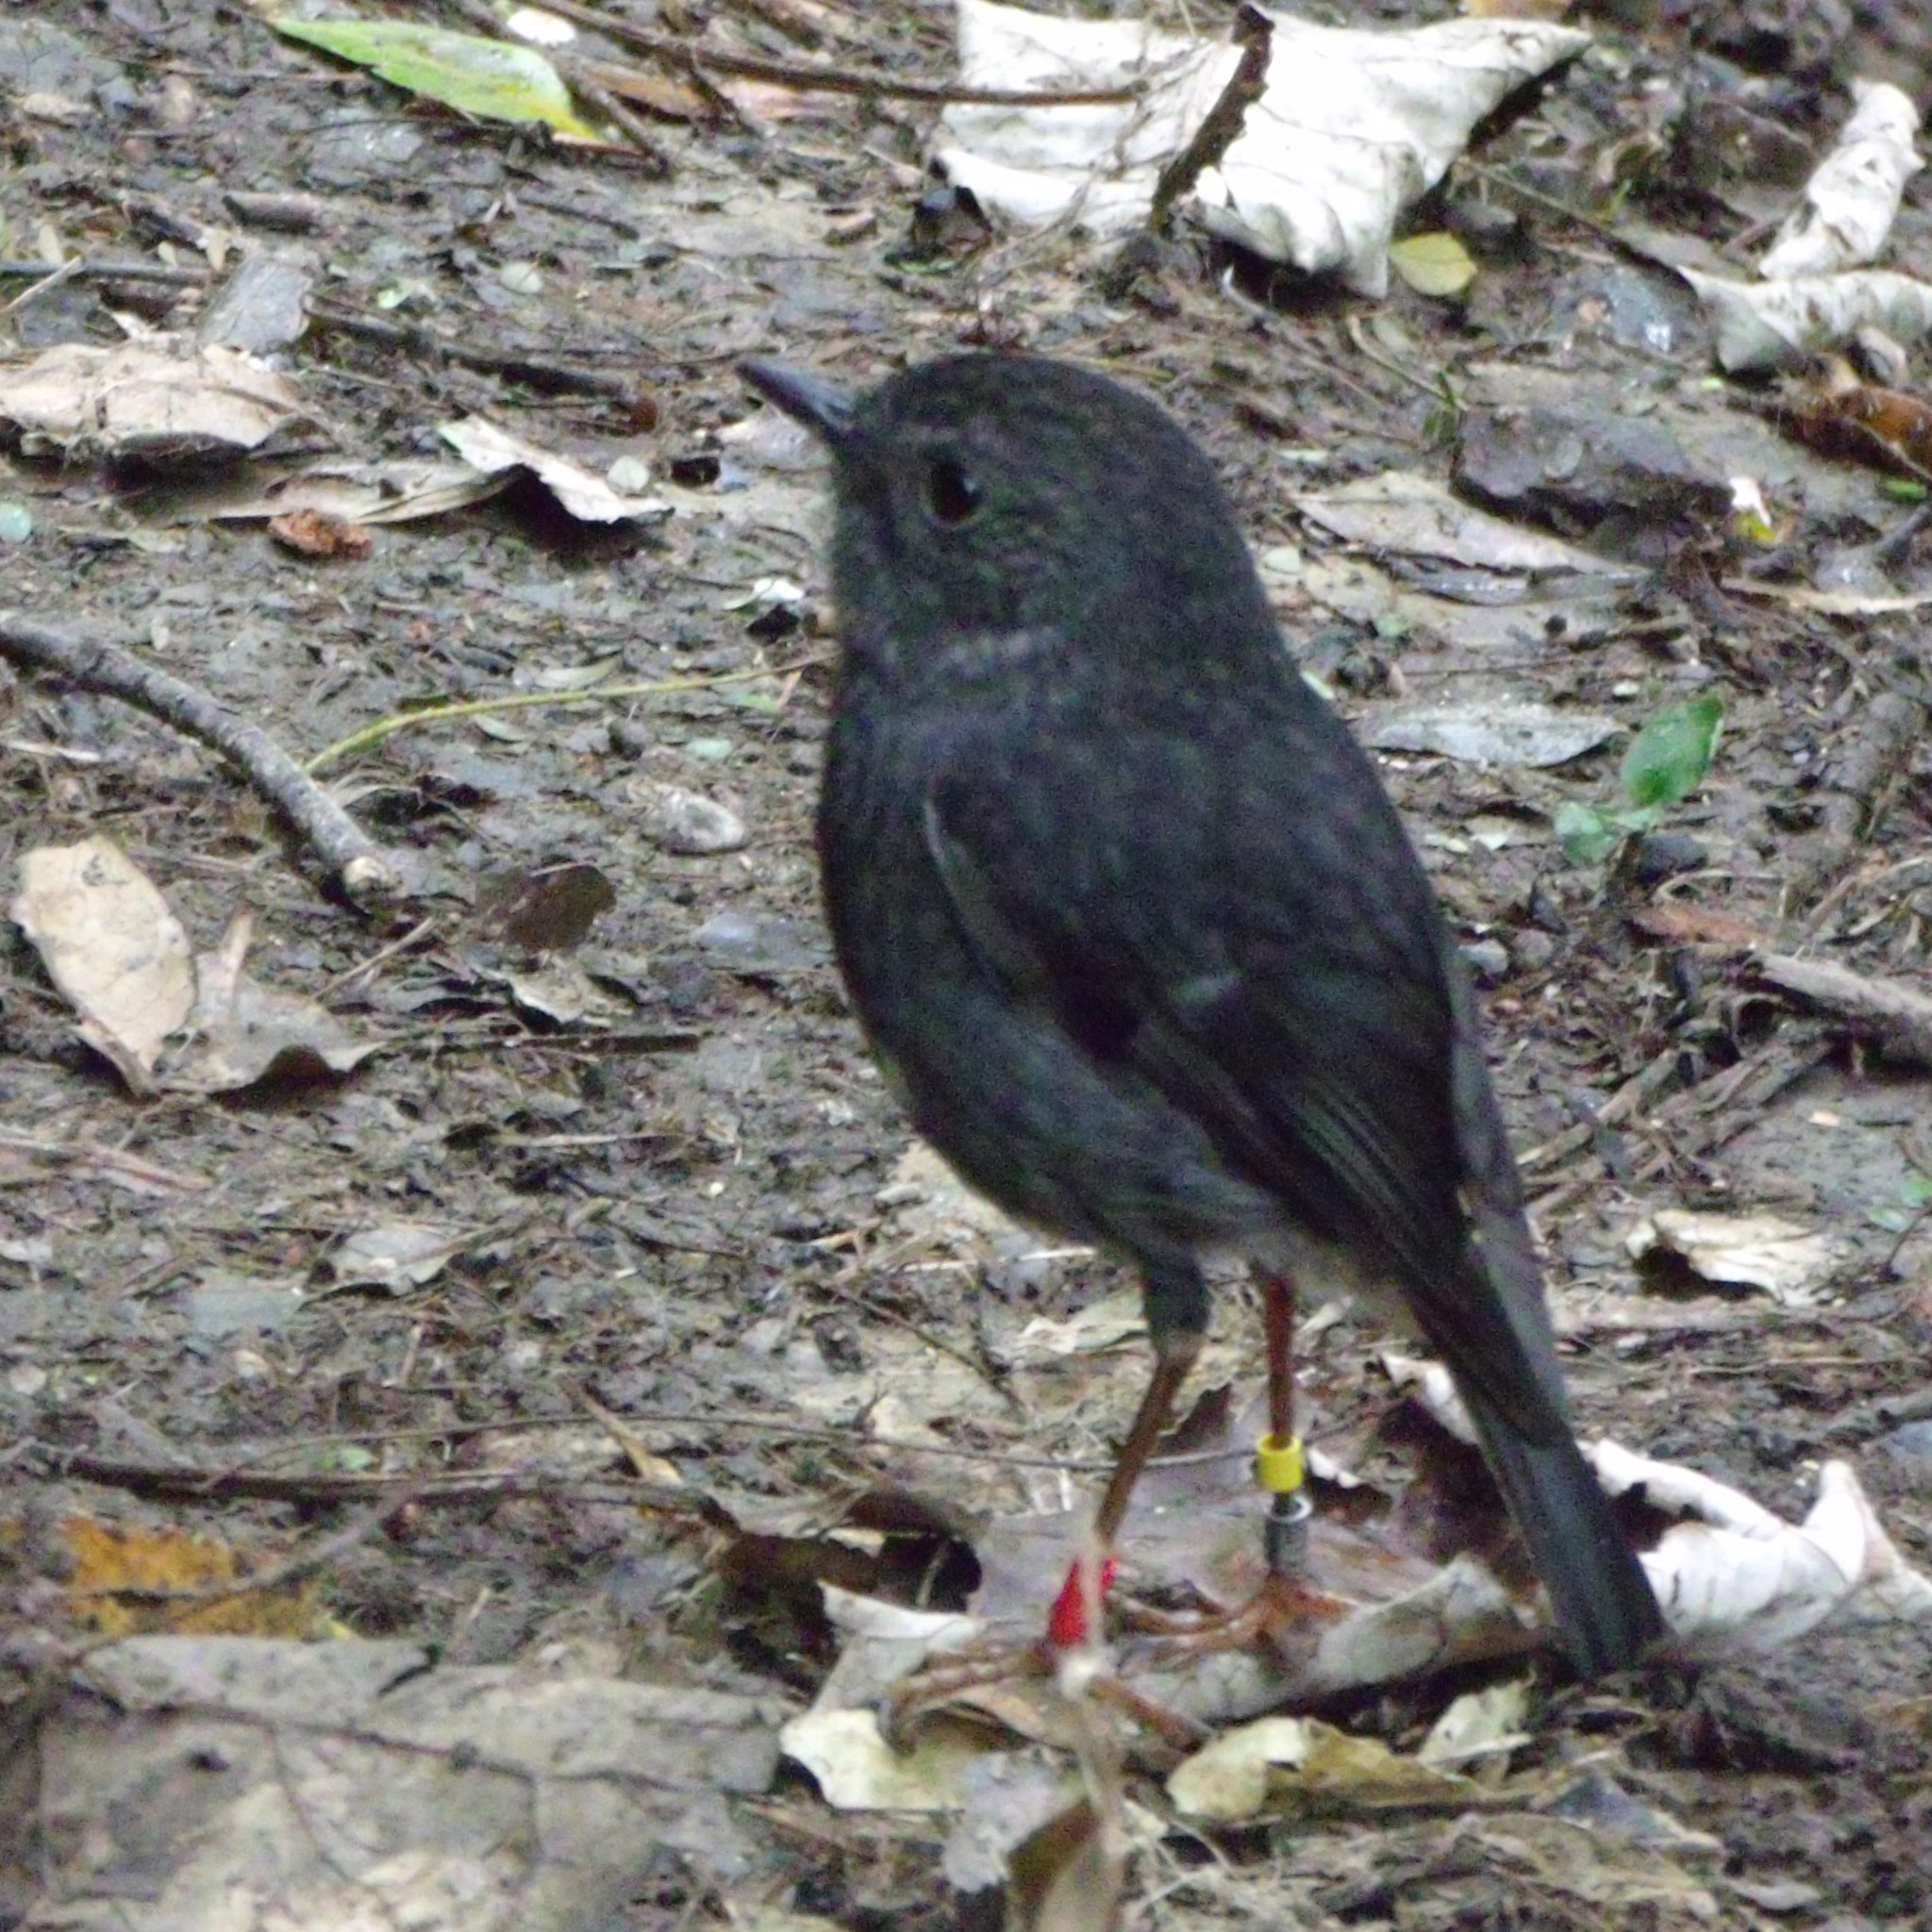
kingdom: Animalia
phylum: Chordata
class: Aves
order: Passeriformes
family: Petroicidae
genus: Petroica
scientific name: Petroica australis
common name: New zealand robin
